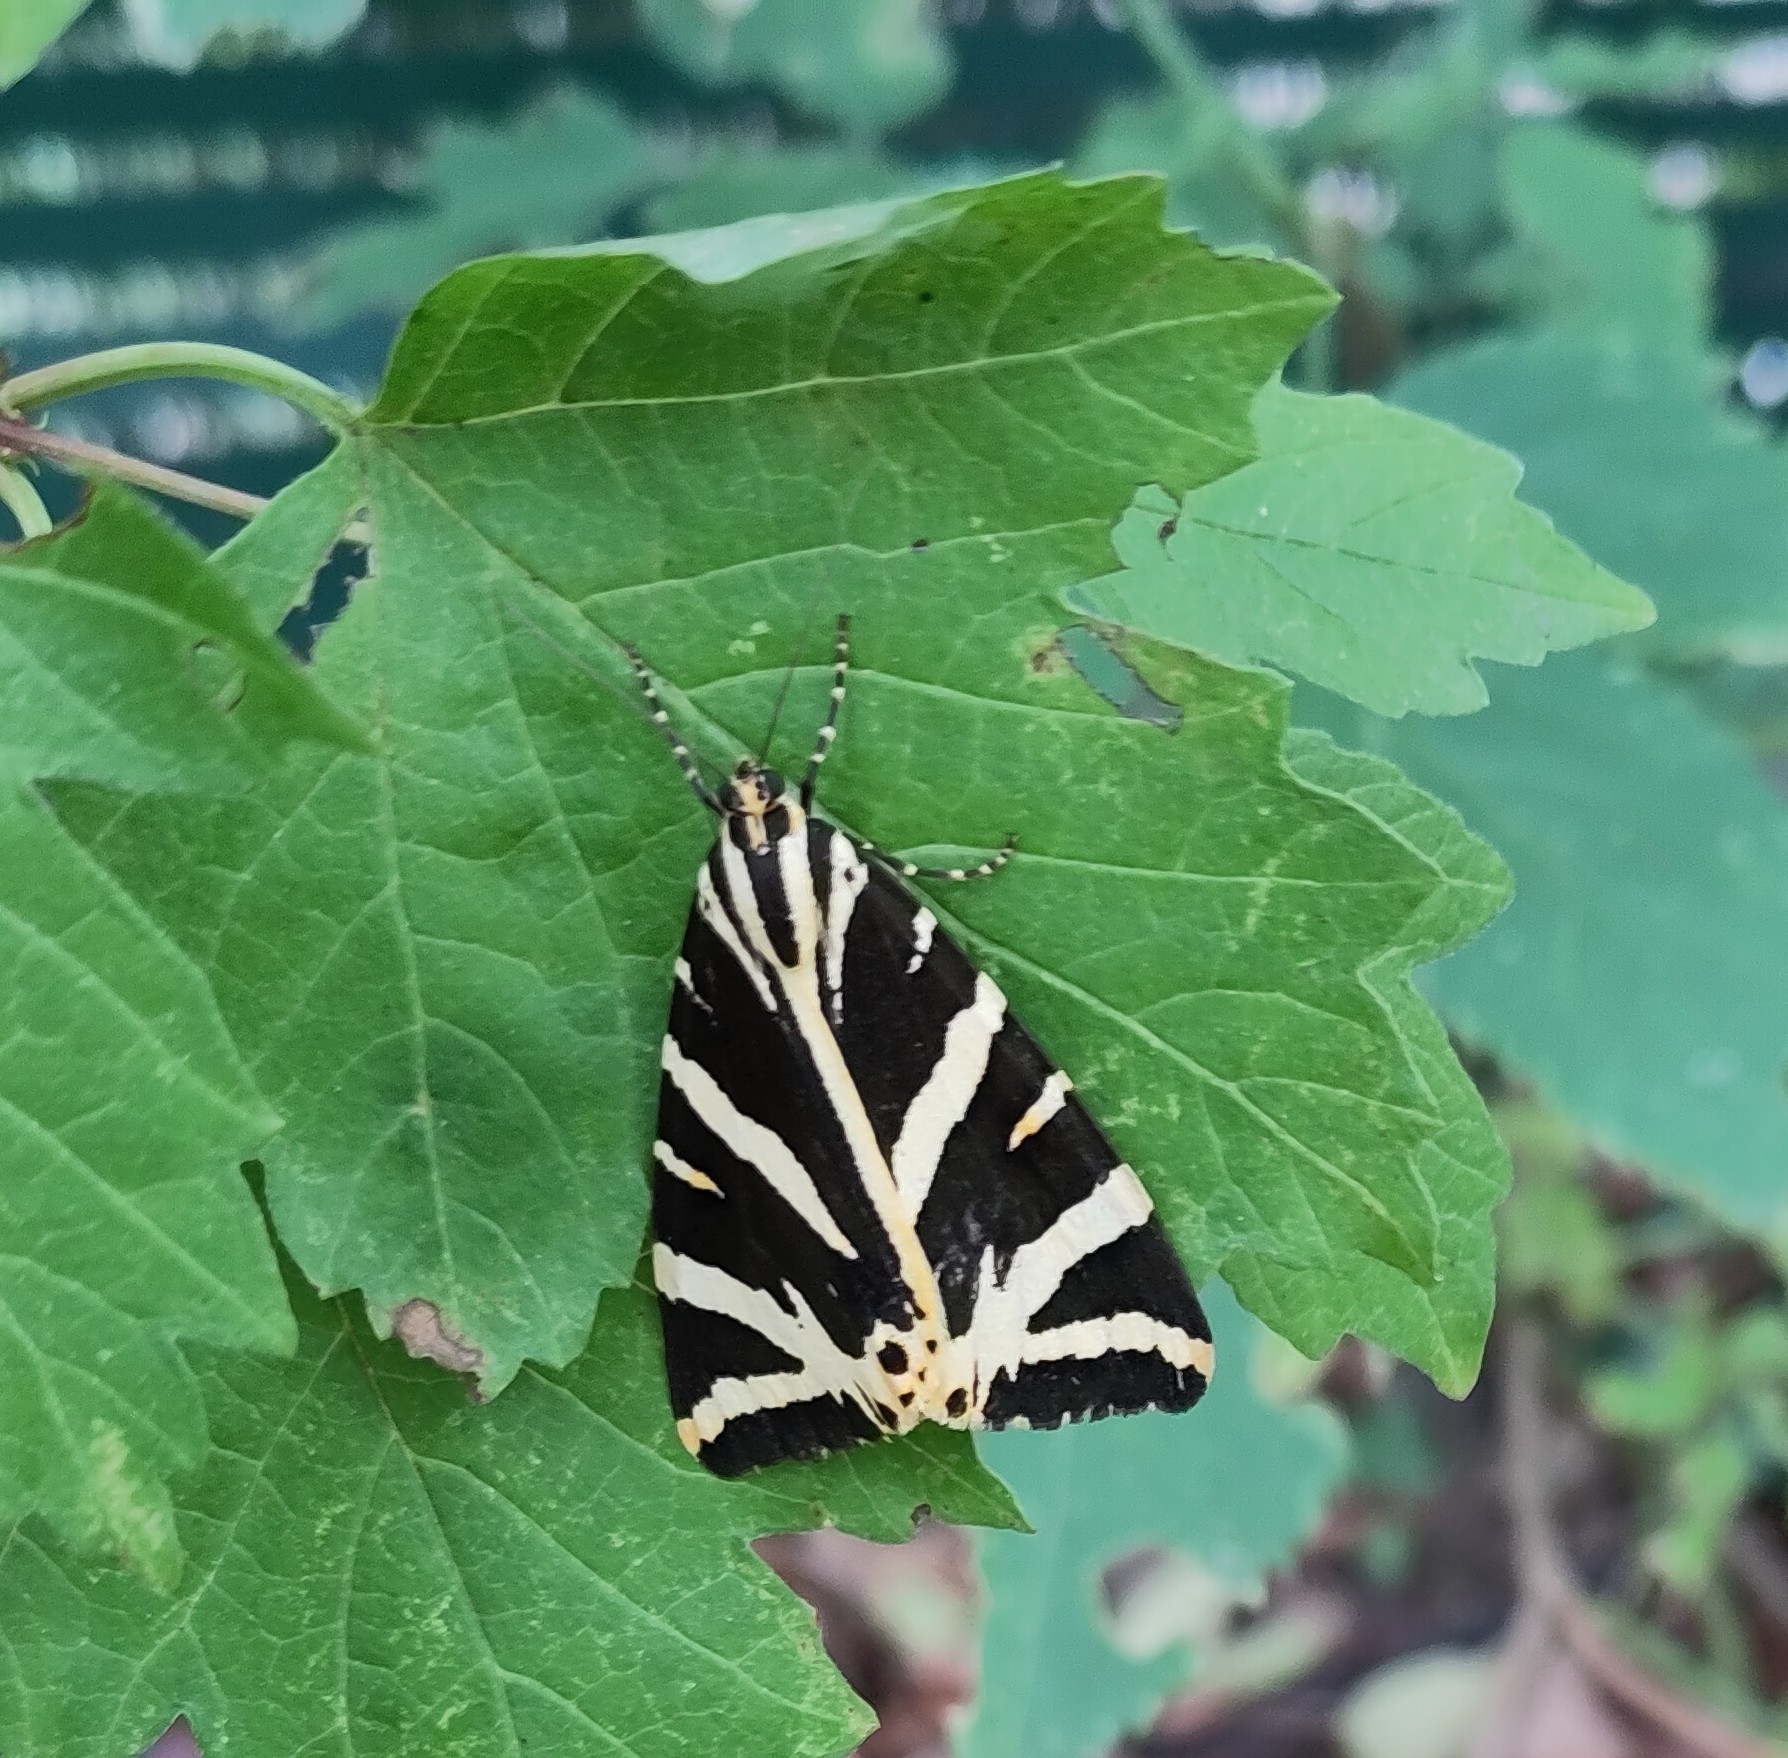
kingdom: Animalia
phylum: Arthropoda
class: Insecta
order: Lepidoptera
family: Erebidae
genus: Euplagia
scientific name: Euplagia quadripunctaria
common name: Jersey tiger
